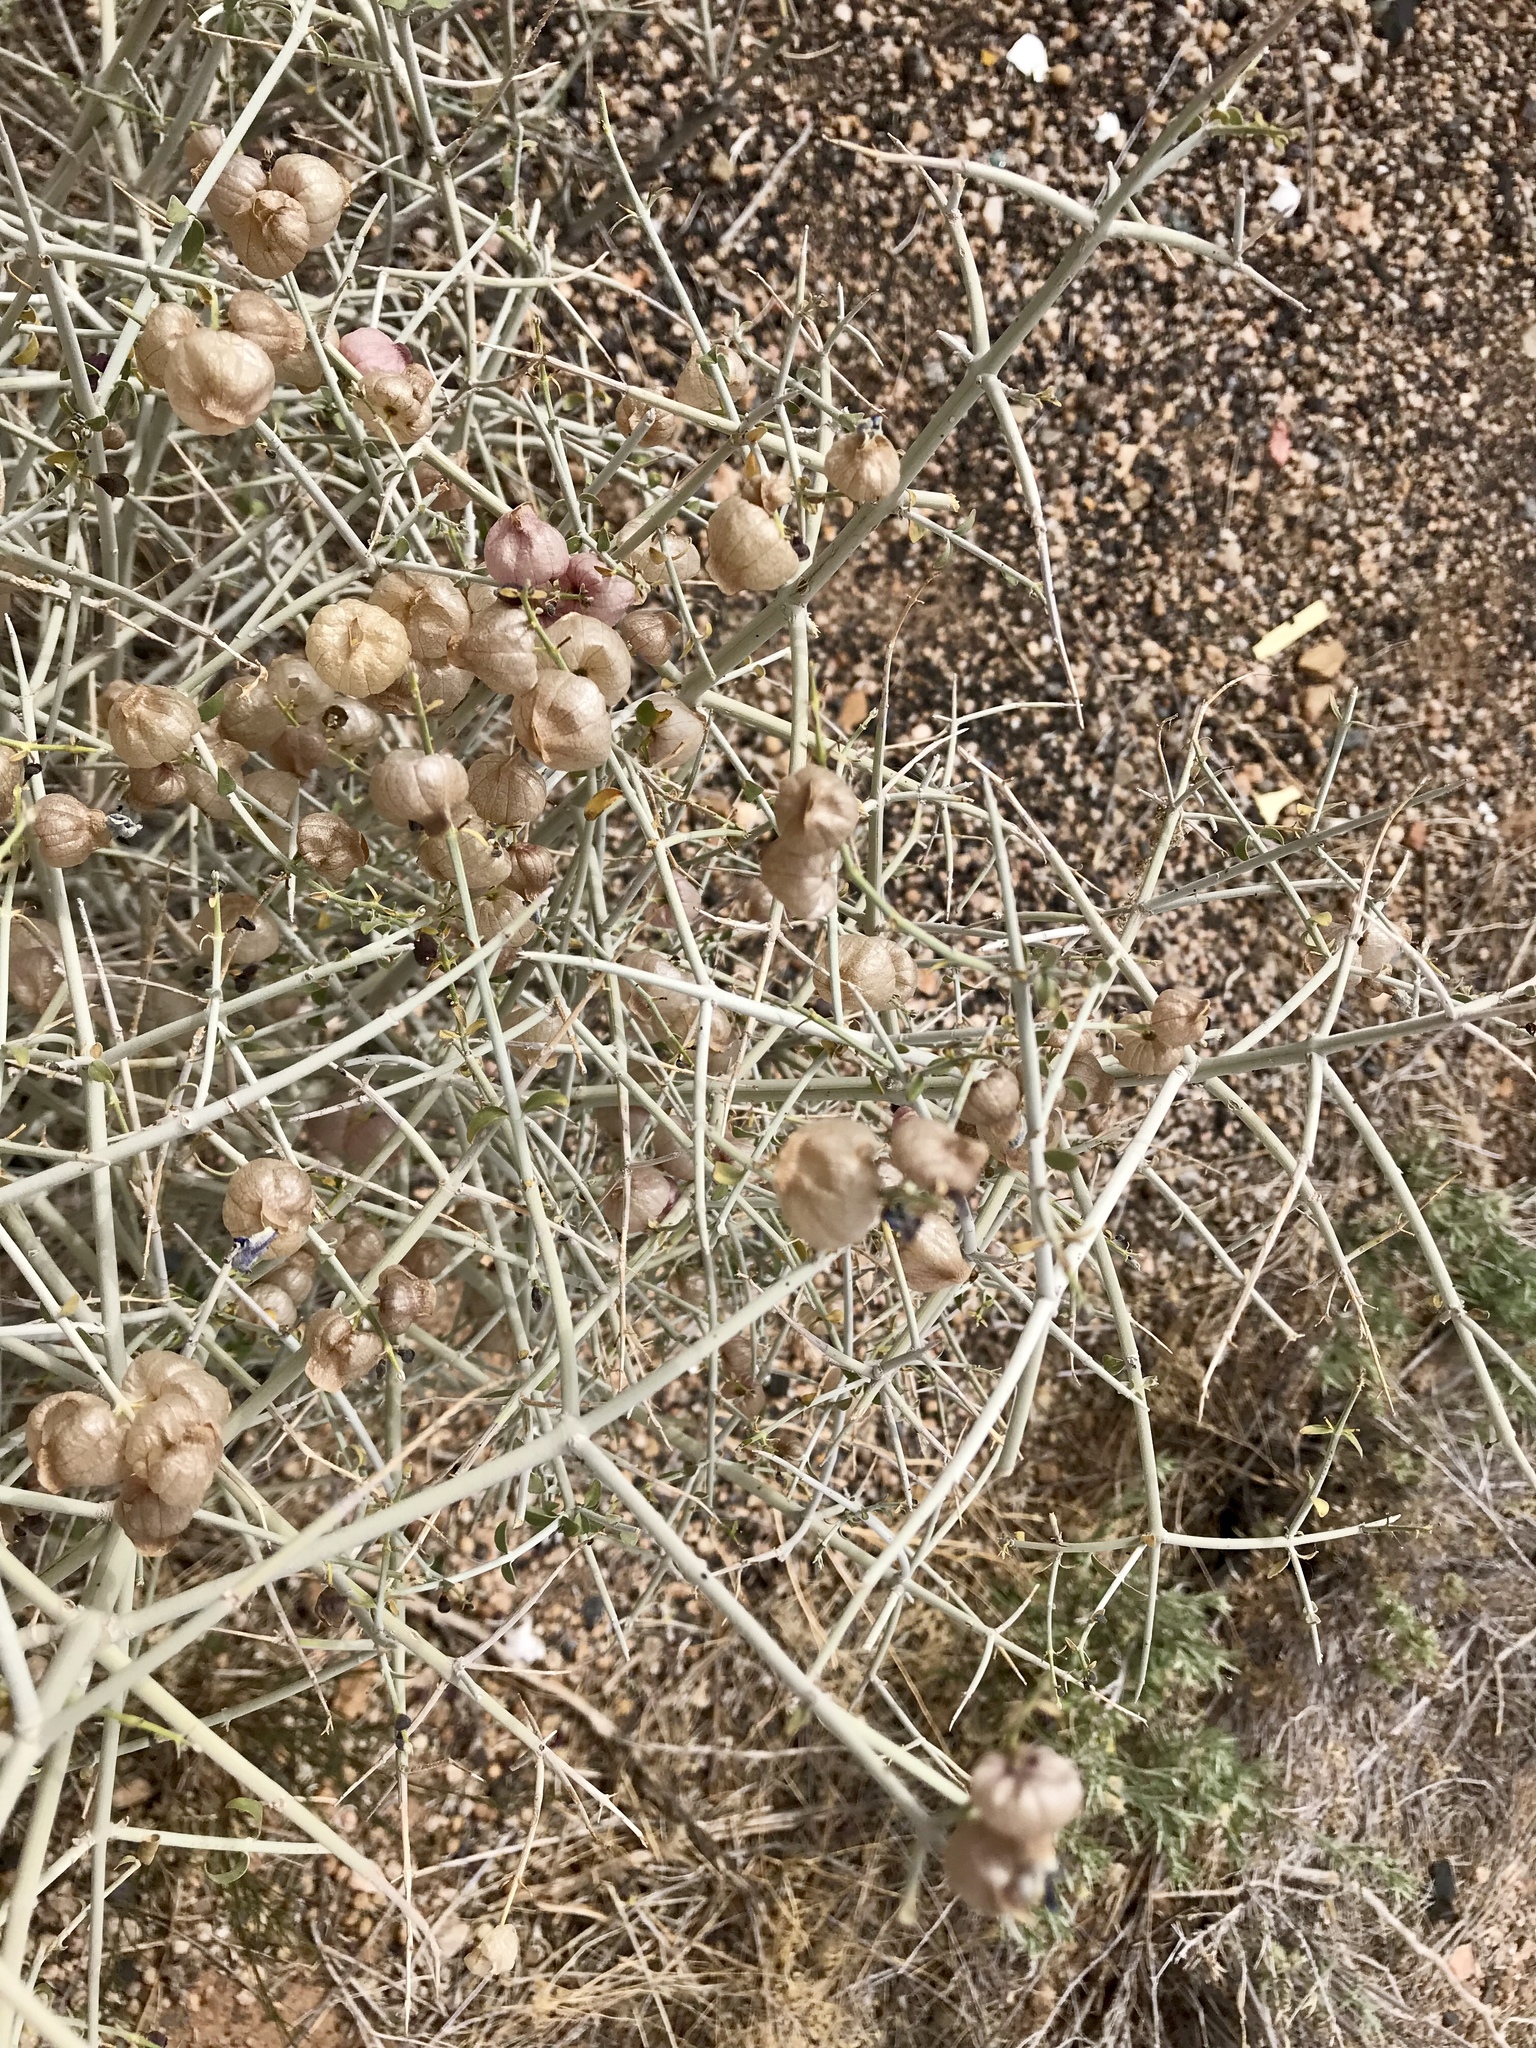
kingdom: Plantae
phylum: Tracheophyta
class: Magnoliopsida
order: Lamiales
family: Lamiaceae
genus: Scutellaria
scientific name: Scutellaria mexicana
